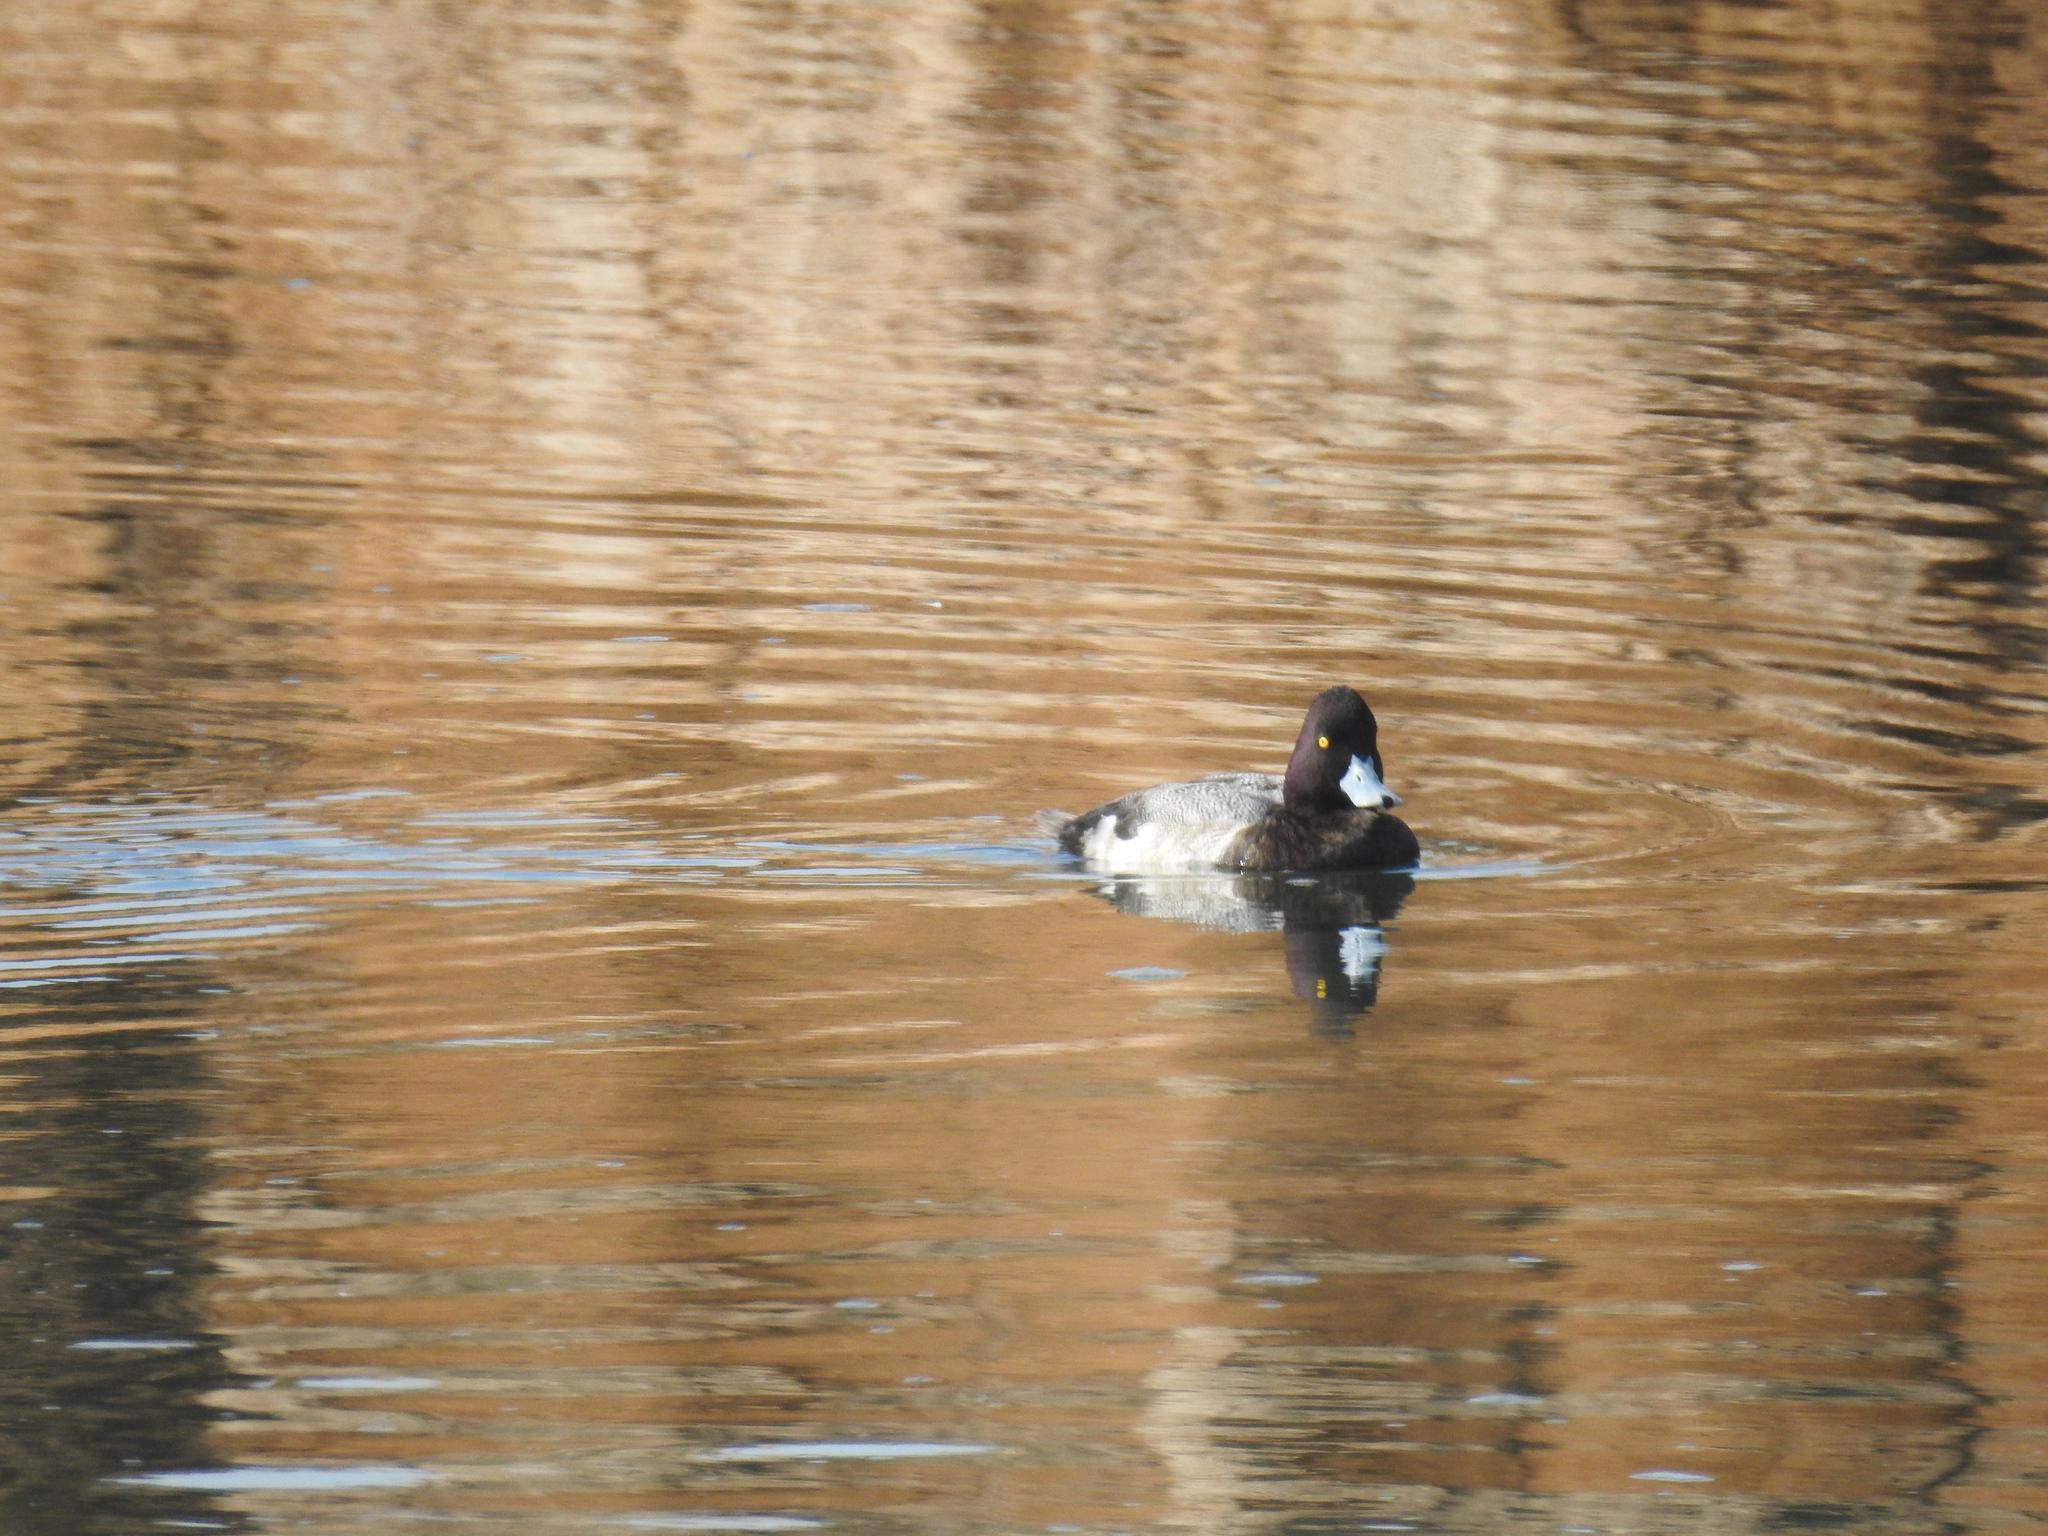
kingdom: Animalia
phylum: Chordata
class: Aves
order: Anseriformes
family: Anatidae
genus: Aythya
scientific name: Aythya affinis
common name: Lesser scaup
